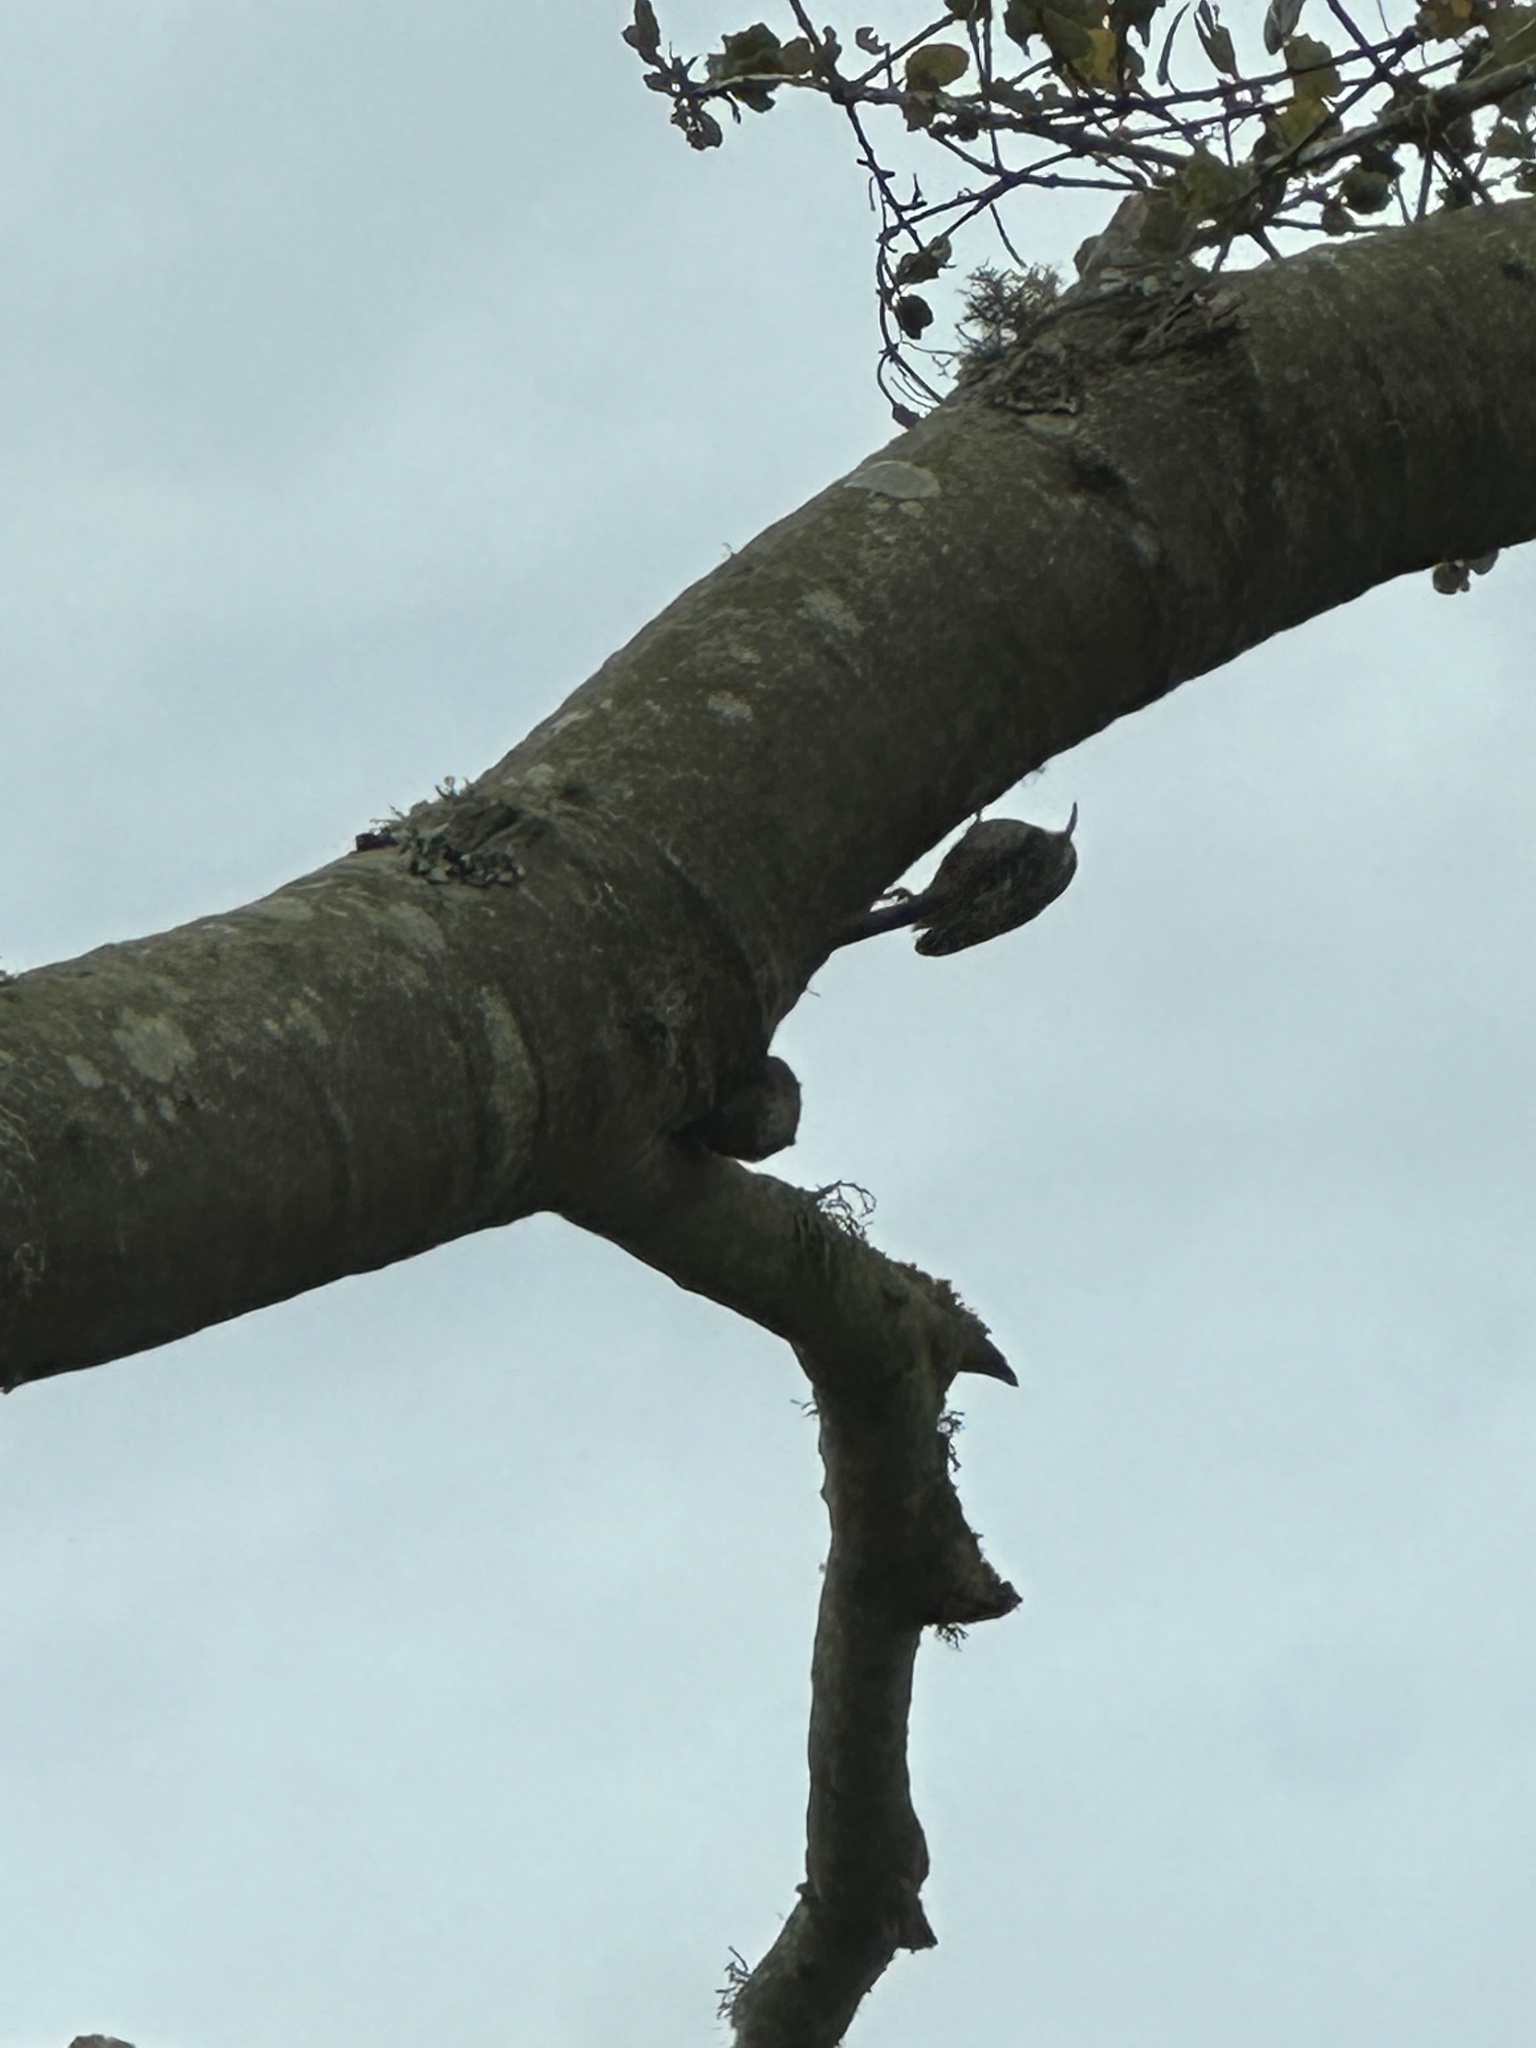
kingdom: Animalia
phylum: Chordata
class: Aves
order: Passeriformes
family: Certhiidae
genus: Certhia
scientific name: Certhia americana
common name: Brown creeper
